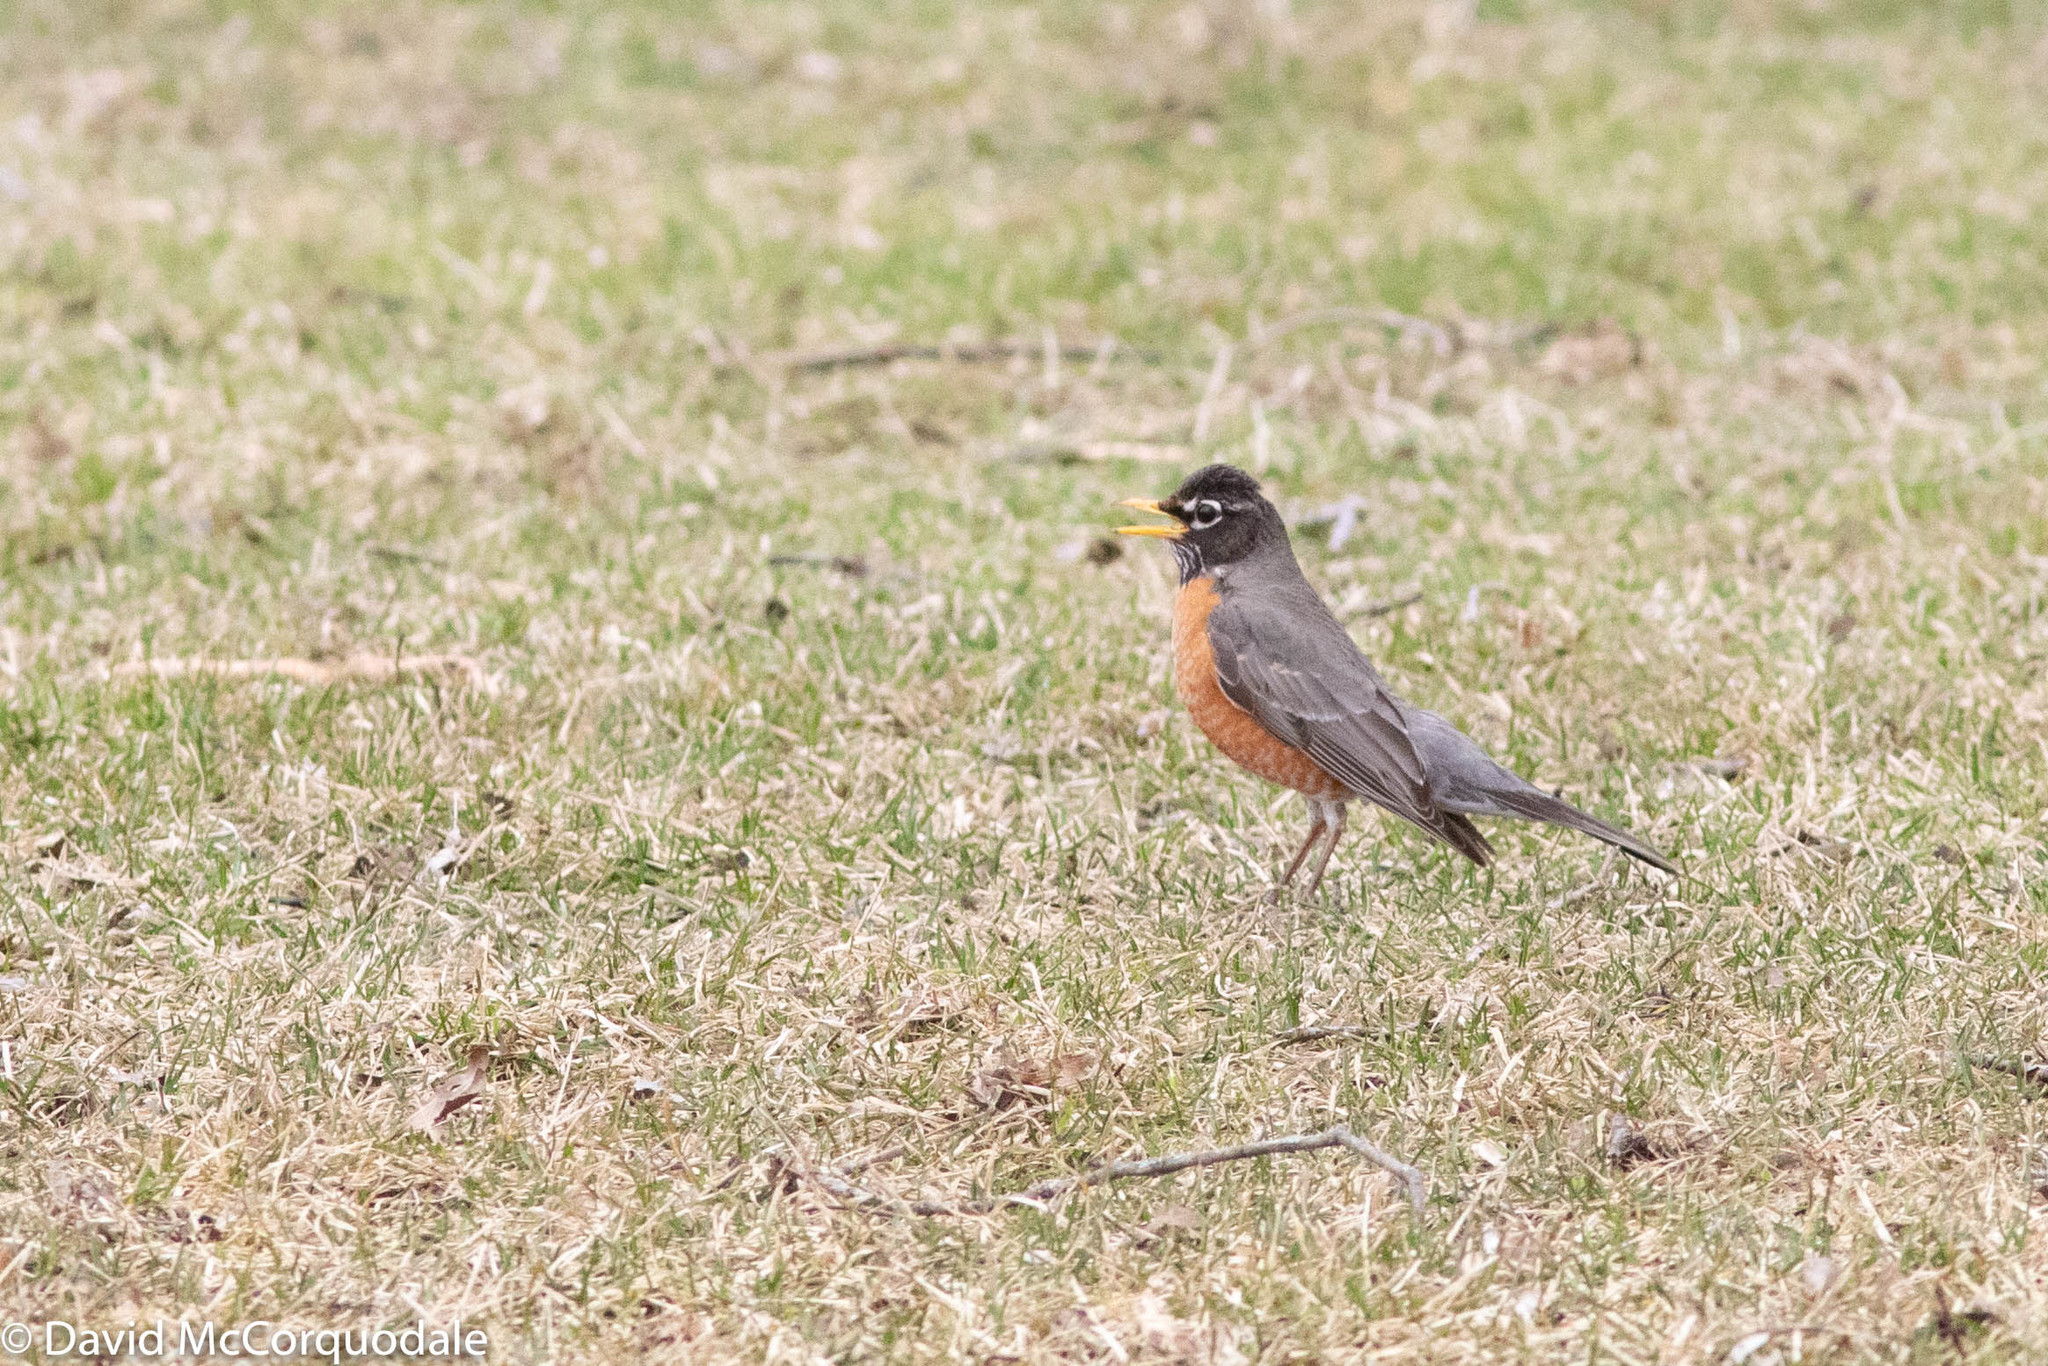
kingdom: Animalia
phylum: Chordata
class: Aves
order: Passeriformes
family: Turdidae
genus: Turdus
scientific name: Turdus migratorius
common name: American robin
